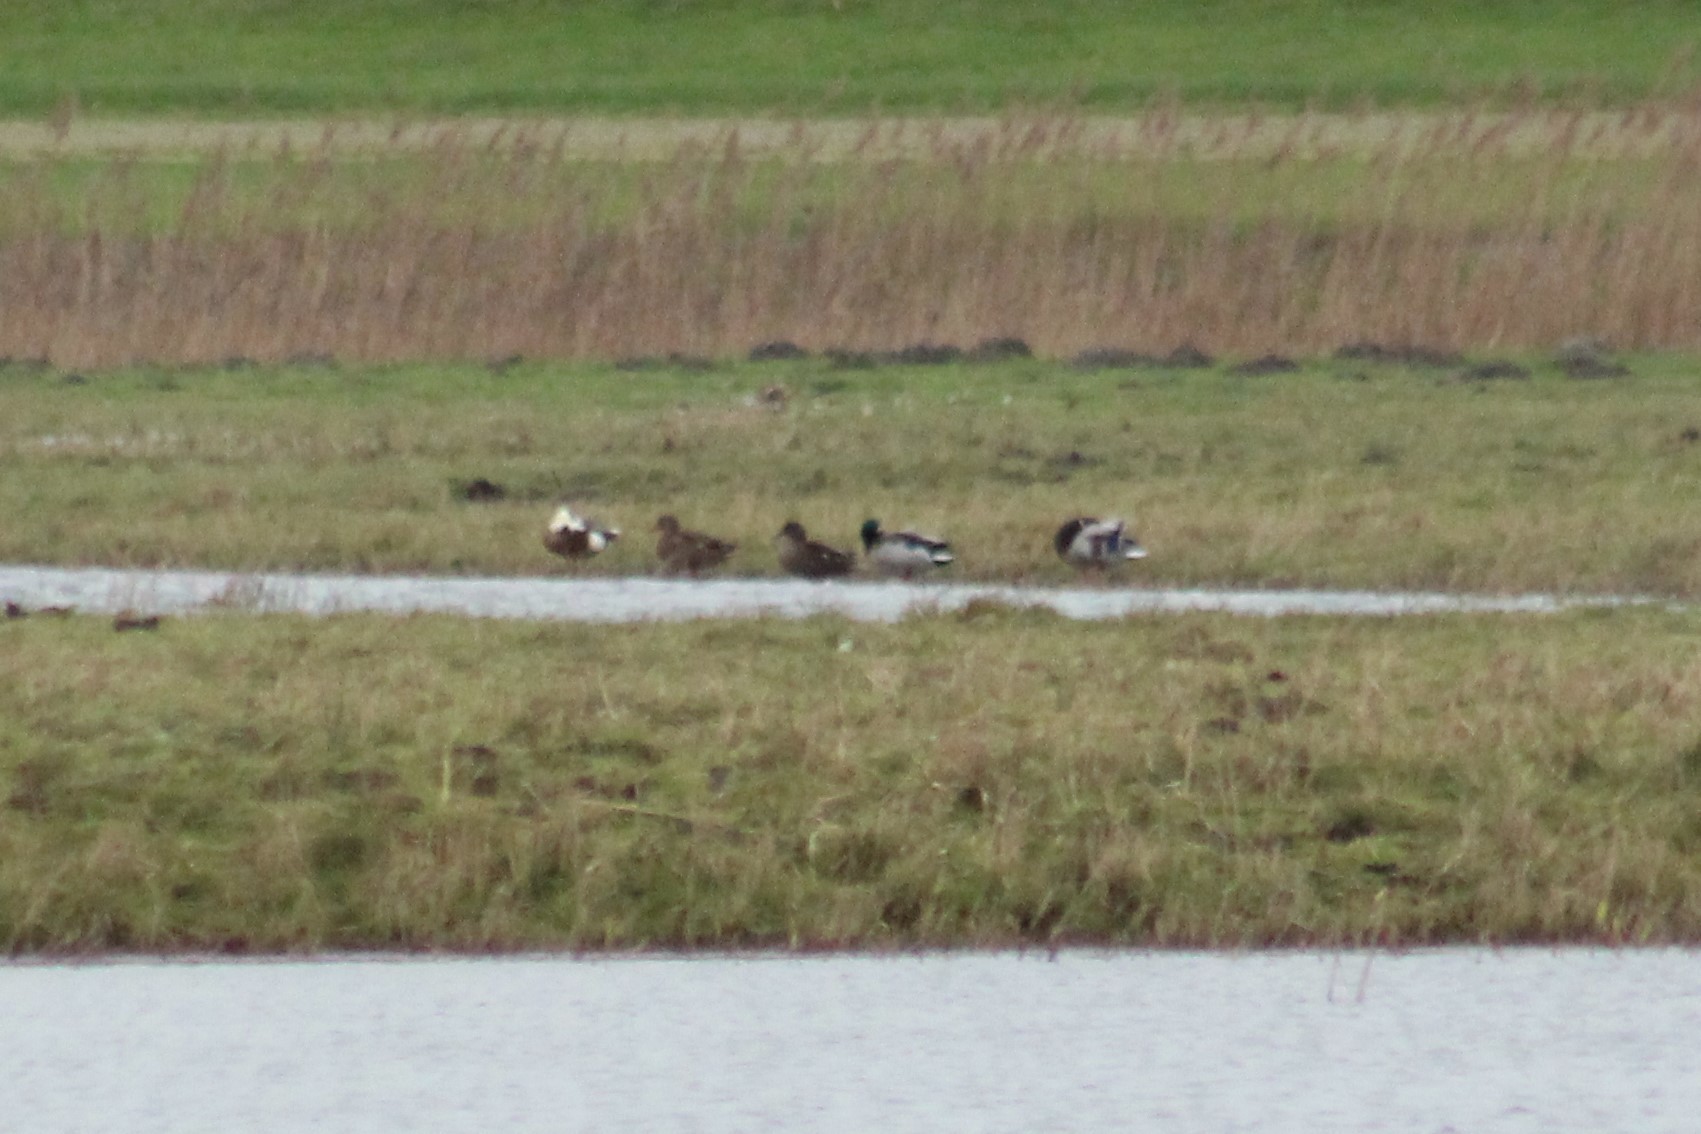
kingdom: Animalia
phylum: Chordata
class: Aves
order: Anseriformes
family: Anatidae
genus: Anas
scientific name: Anas platyrhynchos
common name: Mallard
